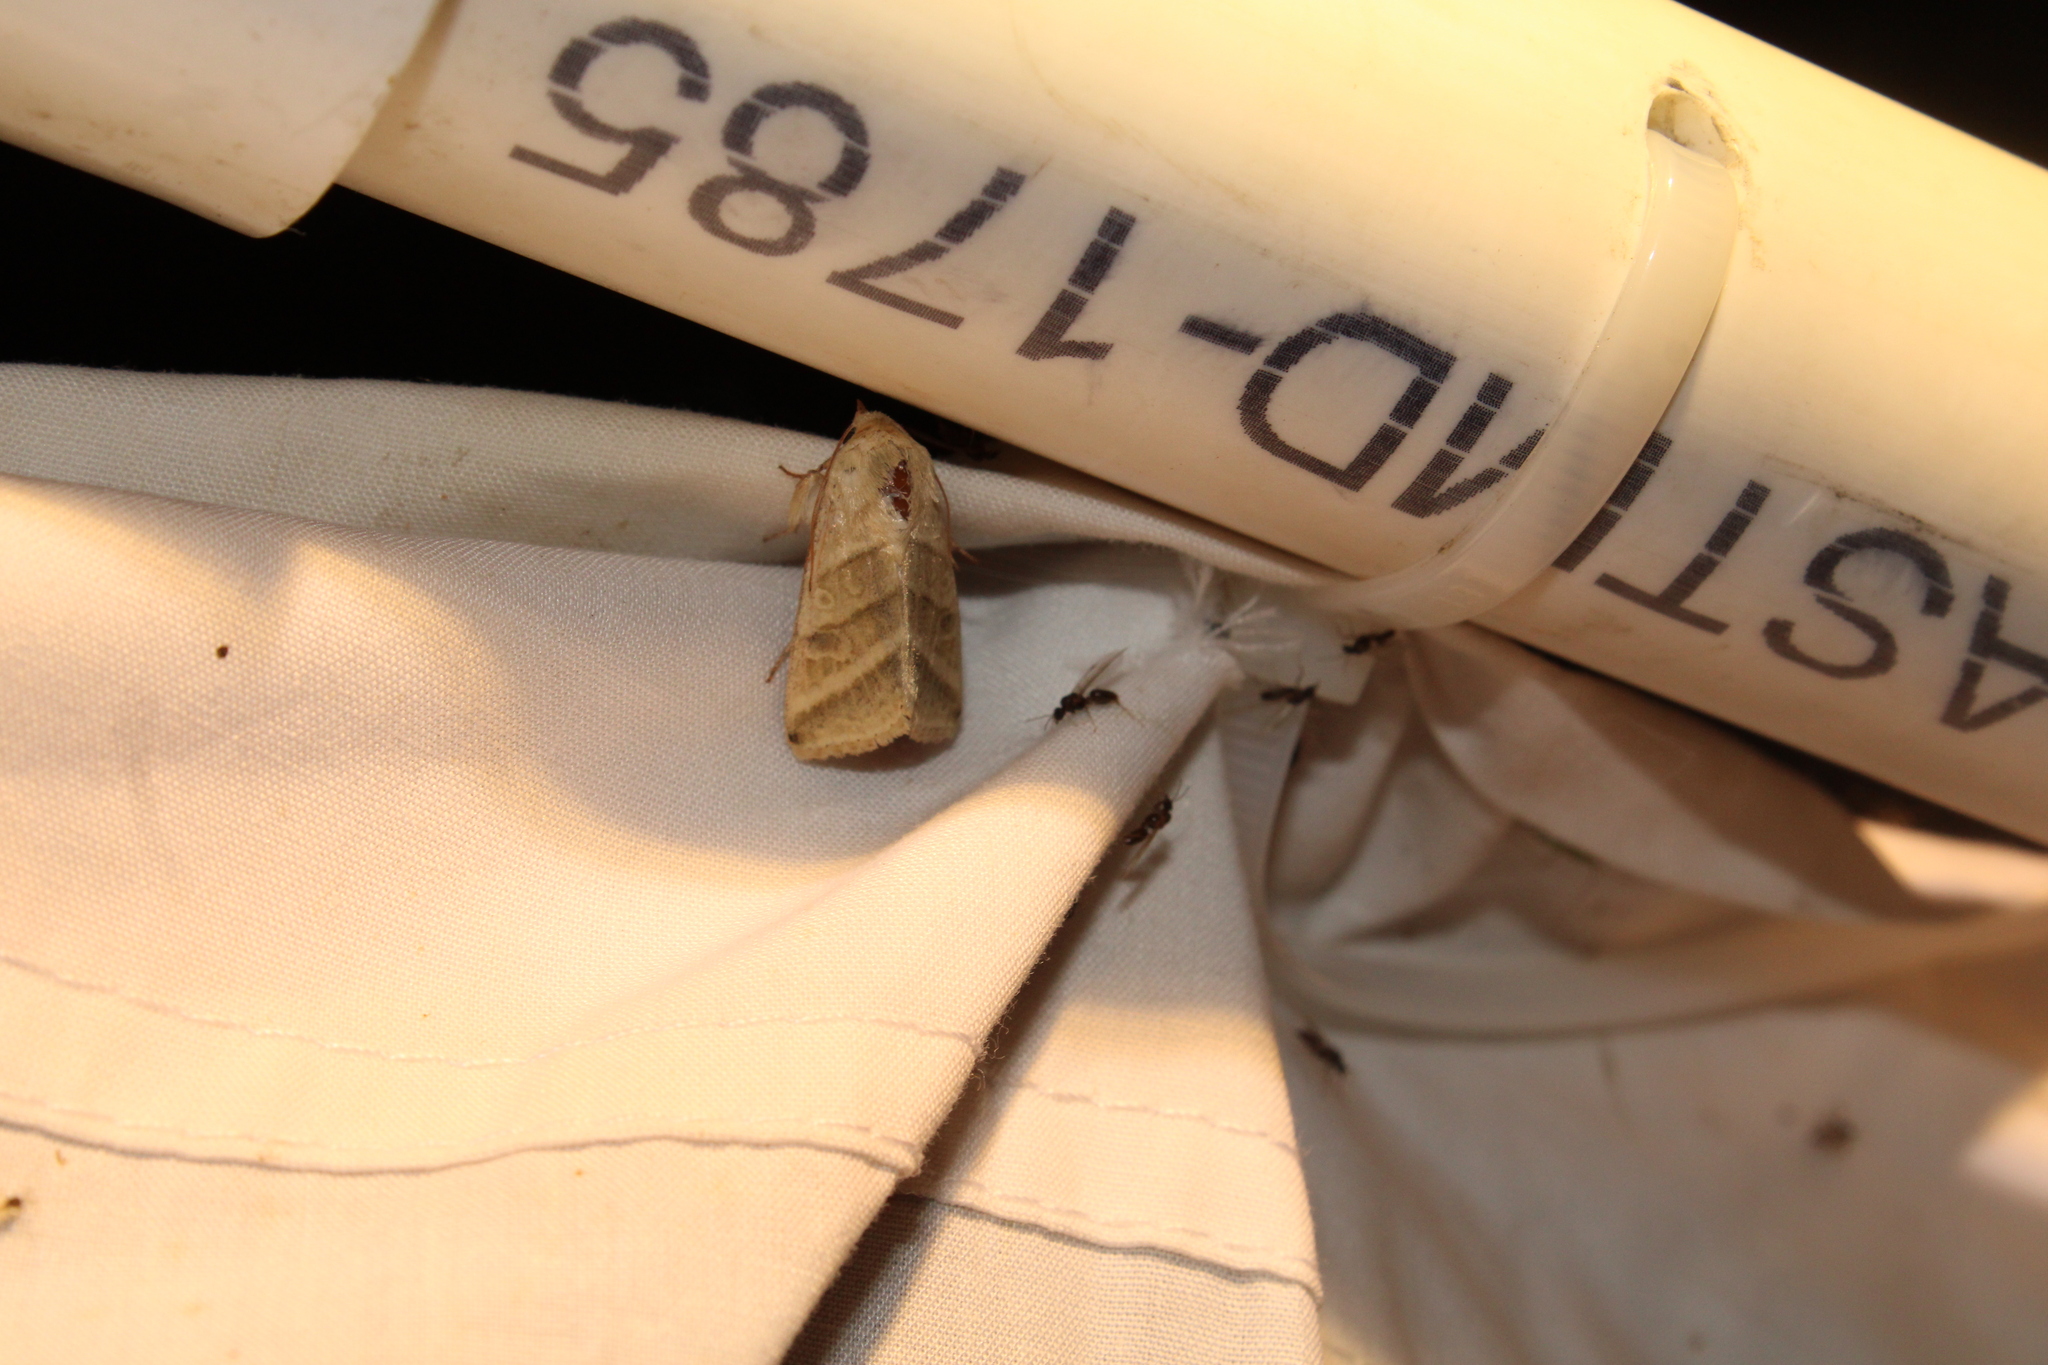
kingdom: Animalia
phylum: Arthropoda
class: Insecta
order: Lepidoptera
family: Noctuidae
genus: Chloridea
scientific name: Chloridea virescens
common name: Tobacco budworm
